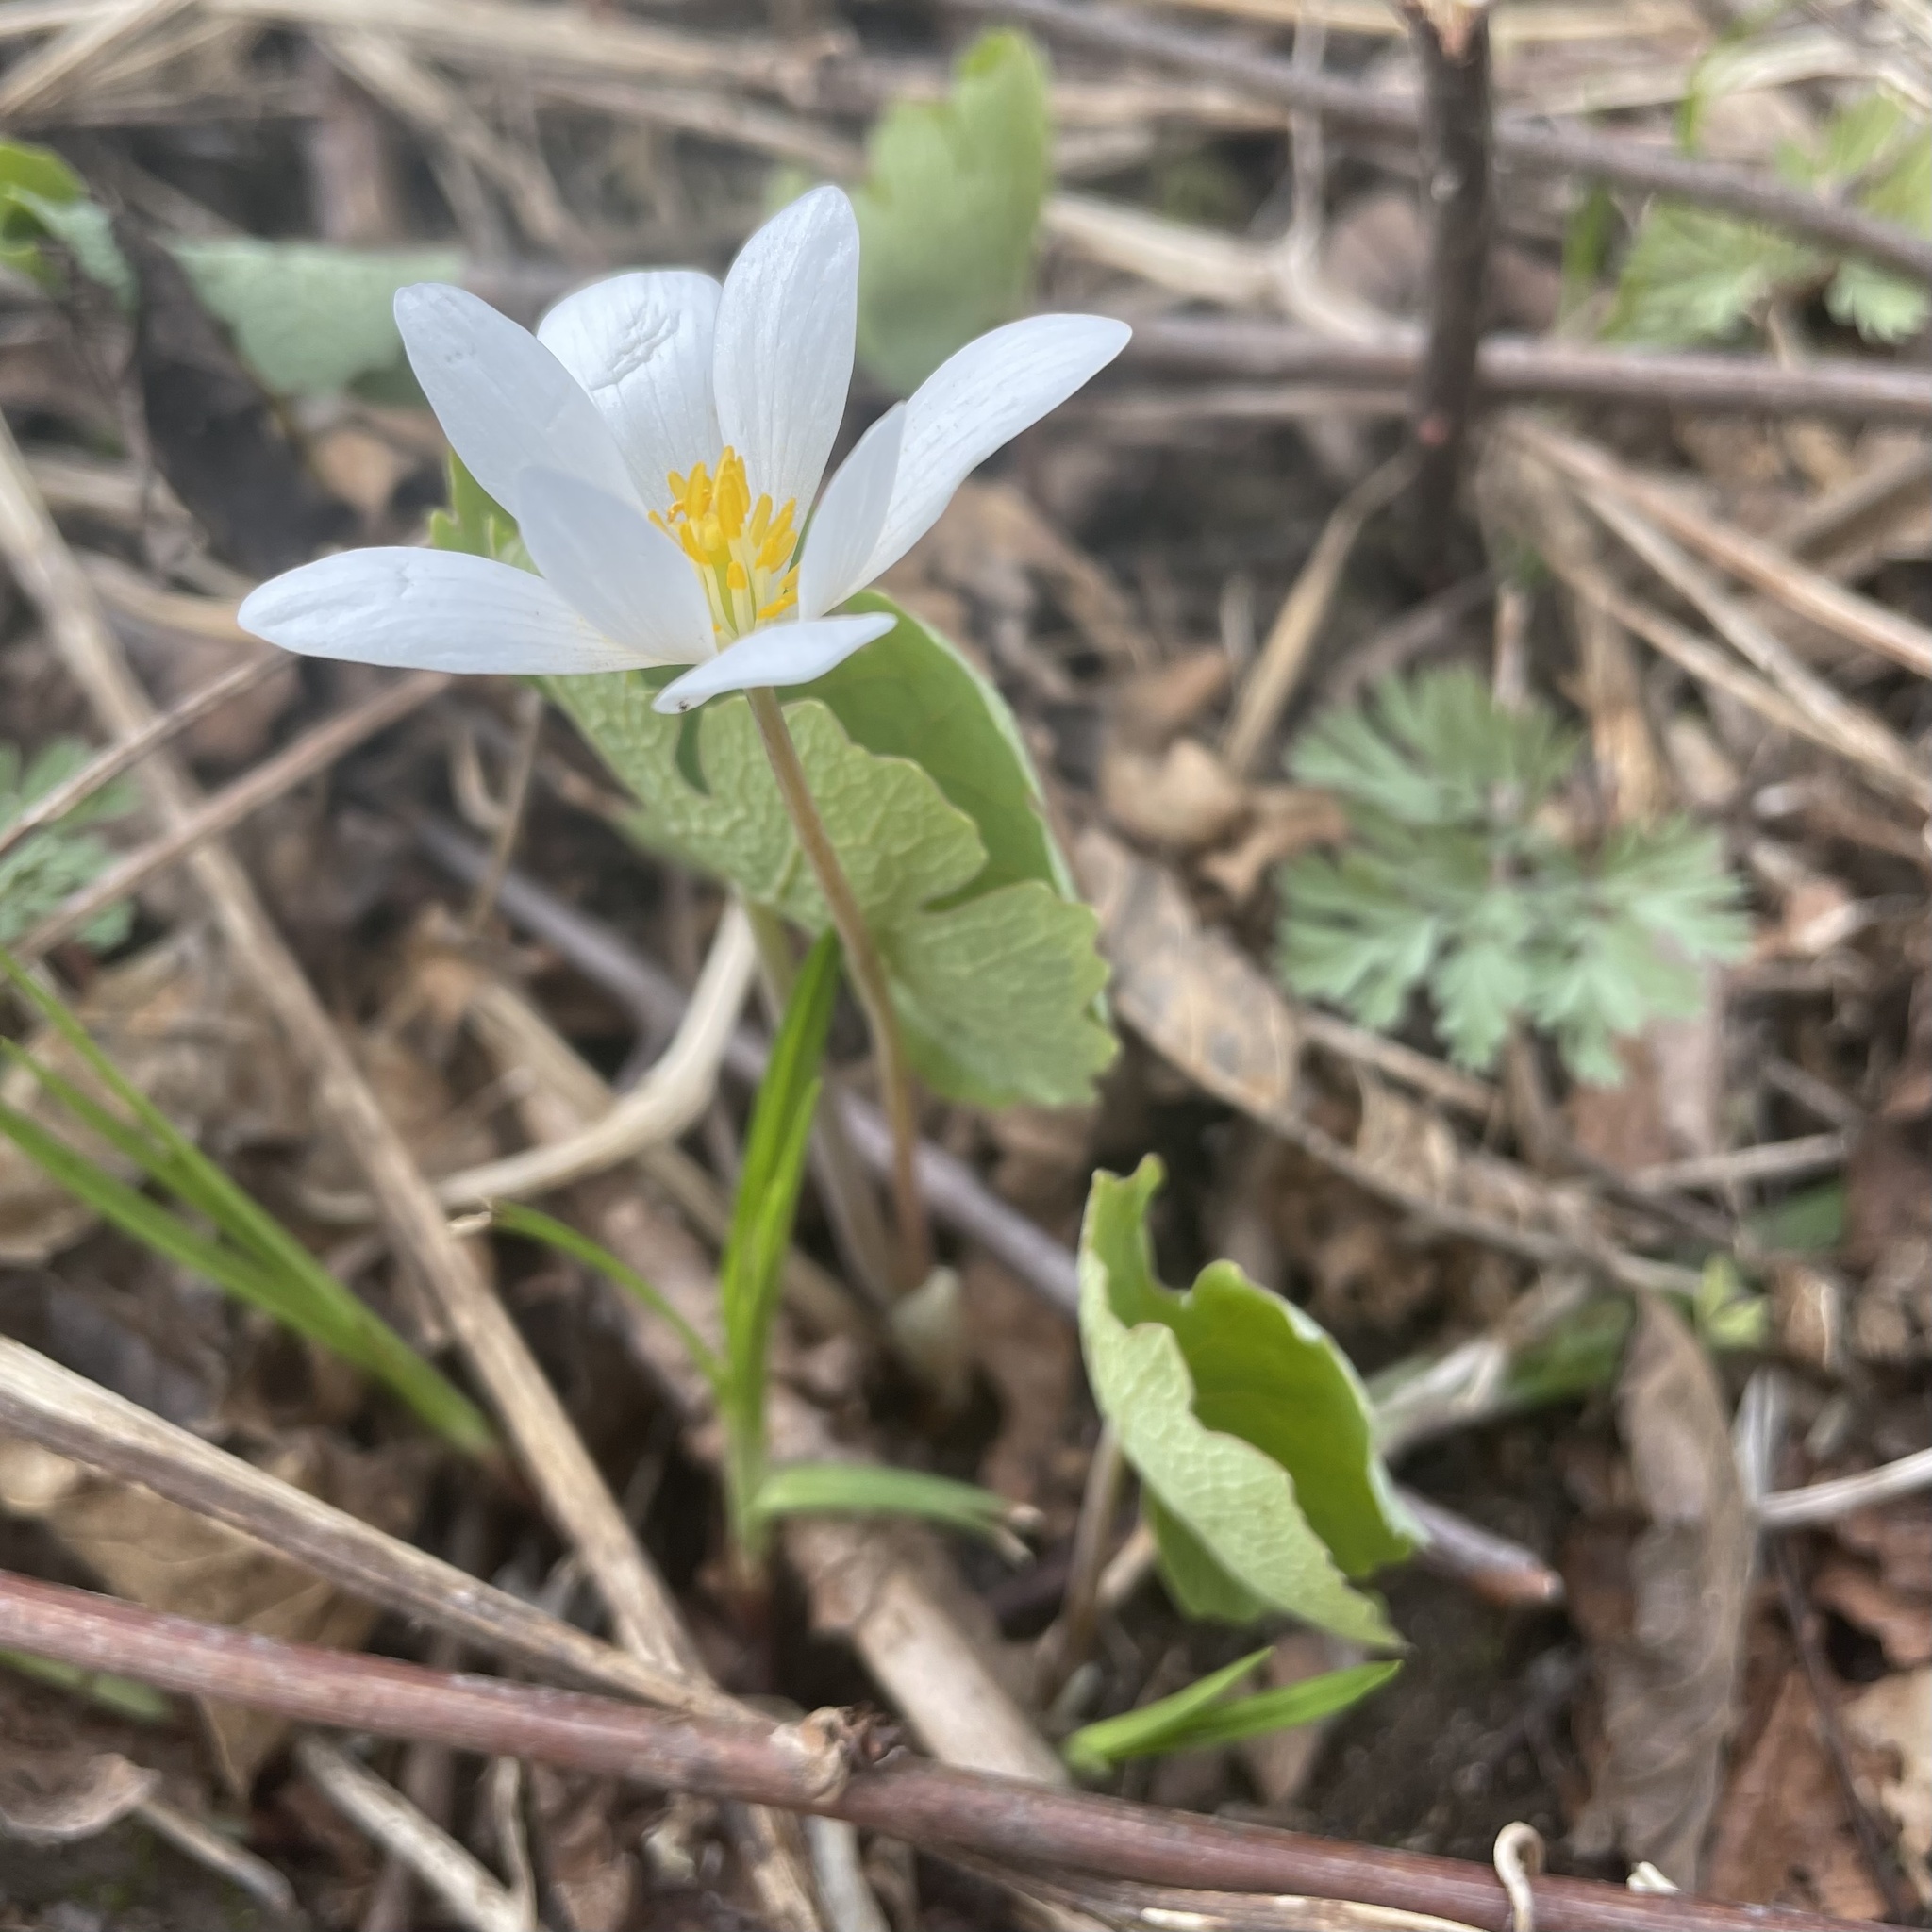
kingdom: Plantae
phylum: Tracheophyta
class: Magnoliopsida
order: Ranunculales
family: Papaveraceae
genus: Sanguinaria
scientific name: Sanguinaria canadensis
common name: Bloodroot
